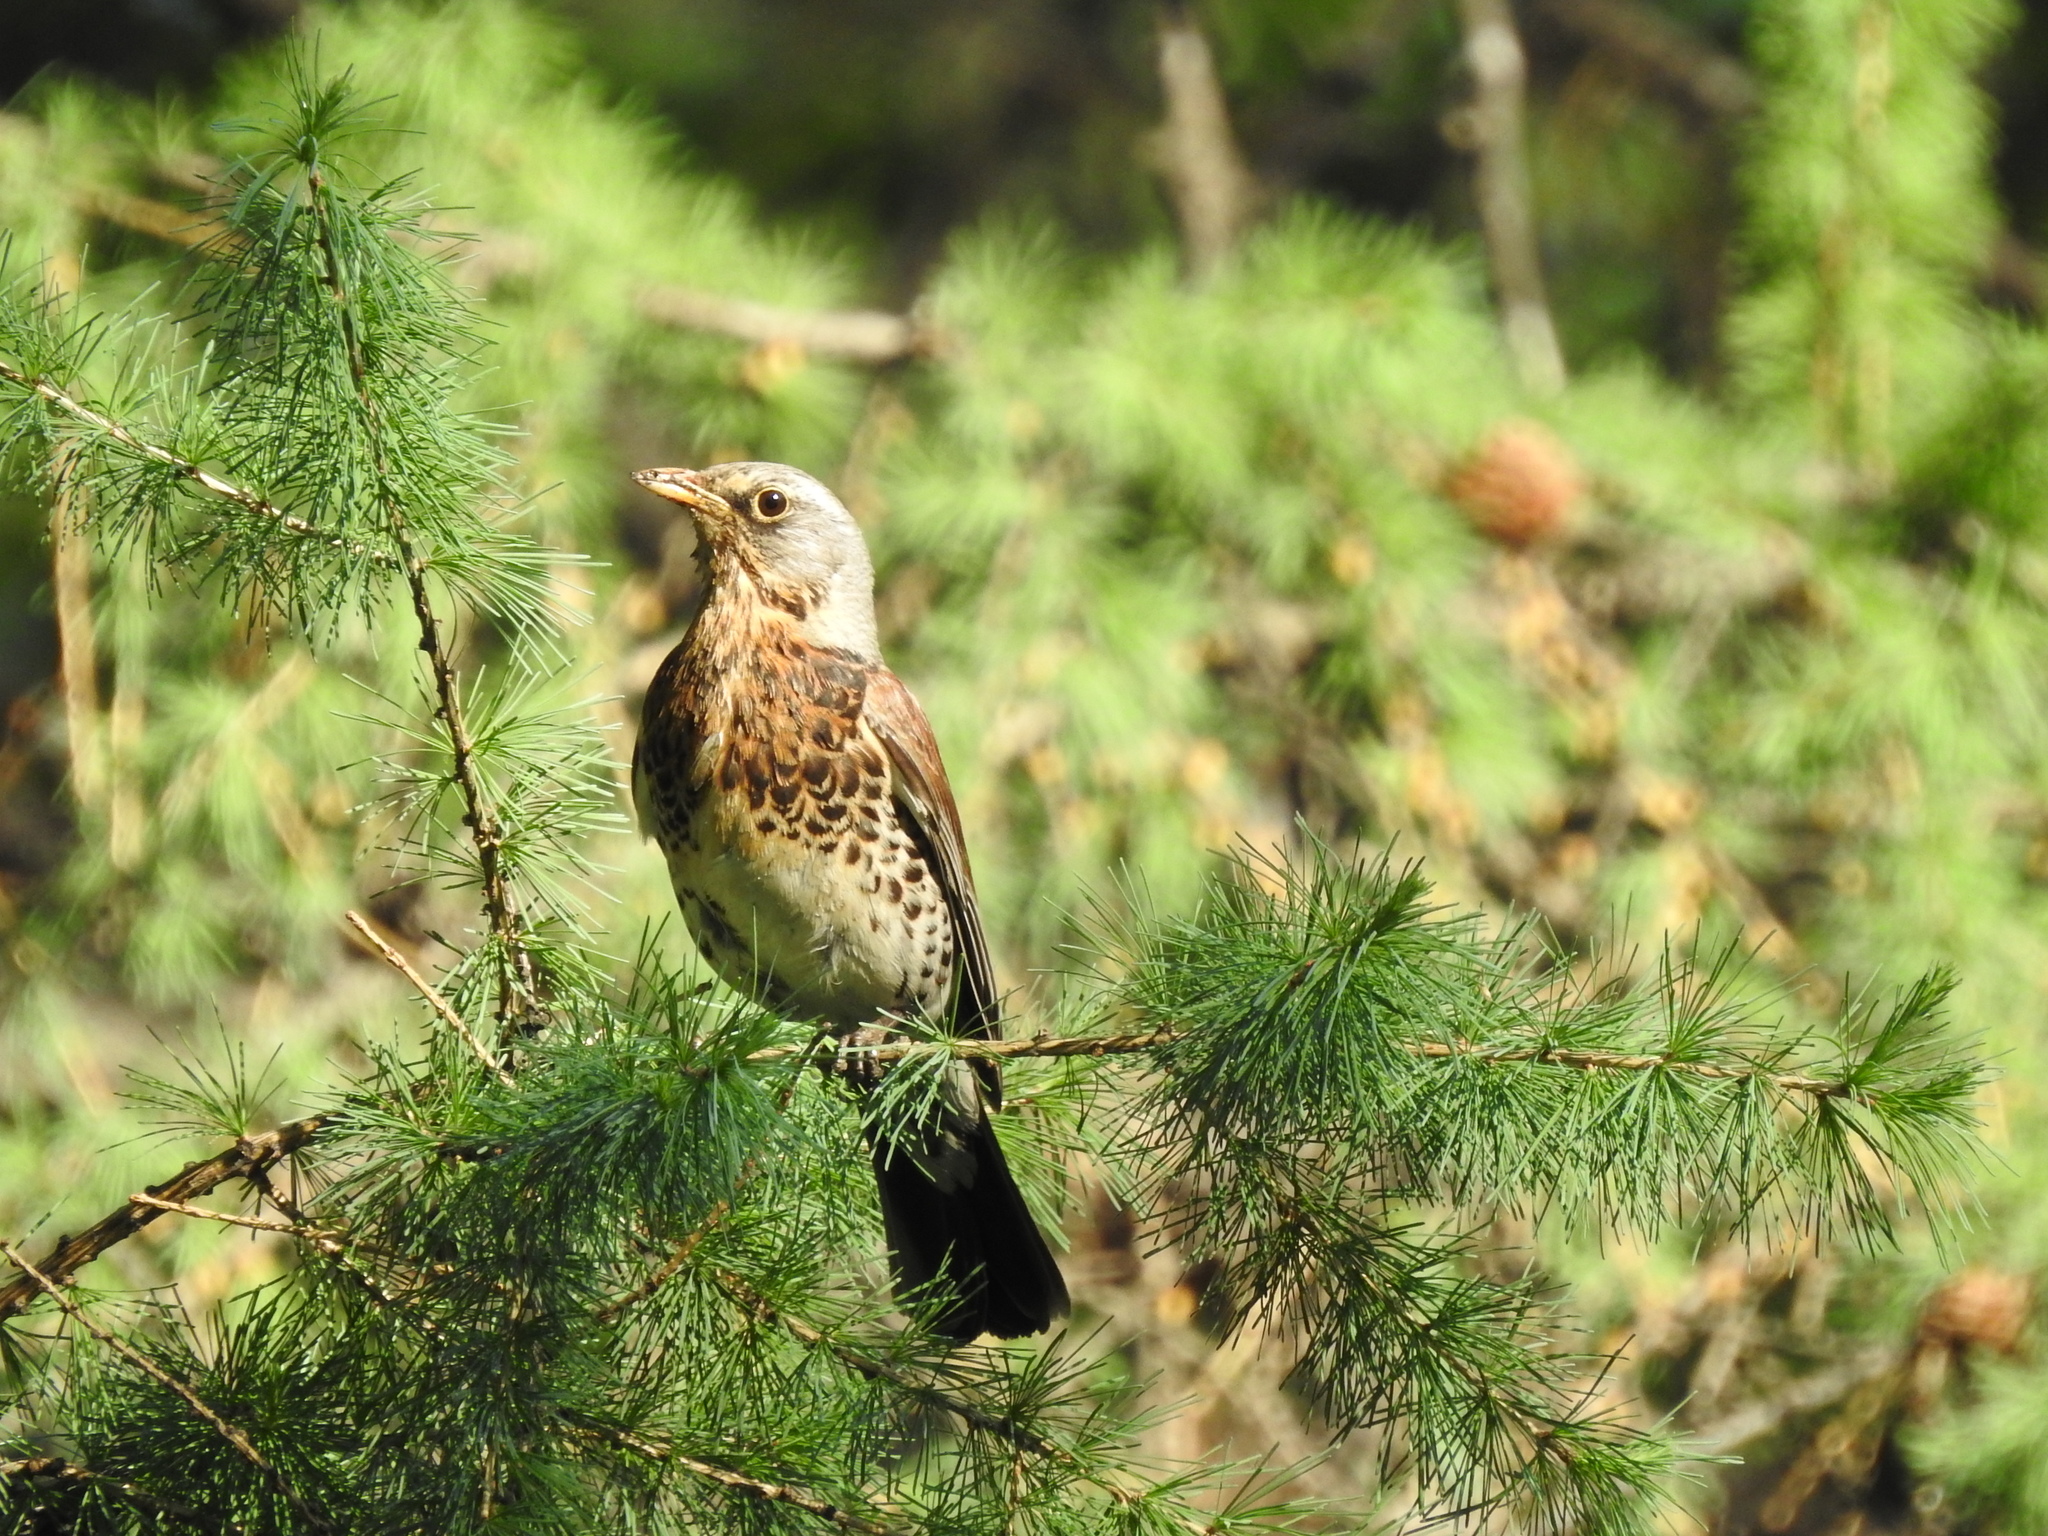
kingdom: Animalia
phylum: Chordata
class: Aves
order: Passeriformes
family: Turdidae
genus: Turdus
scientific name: Turdus pilaris
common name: Fieldfare
